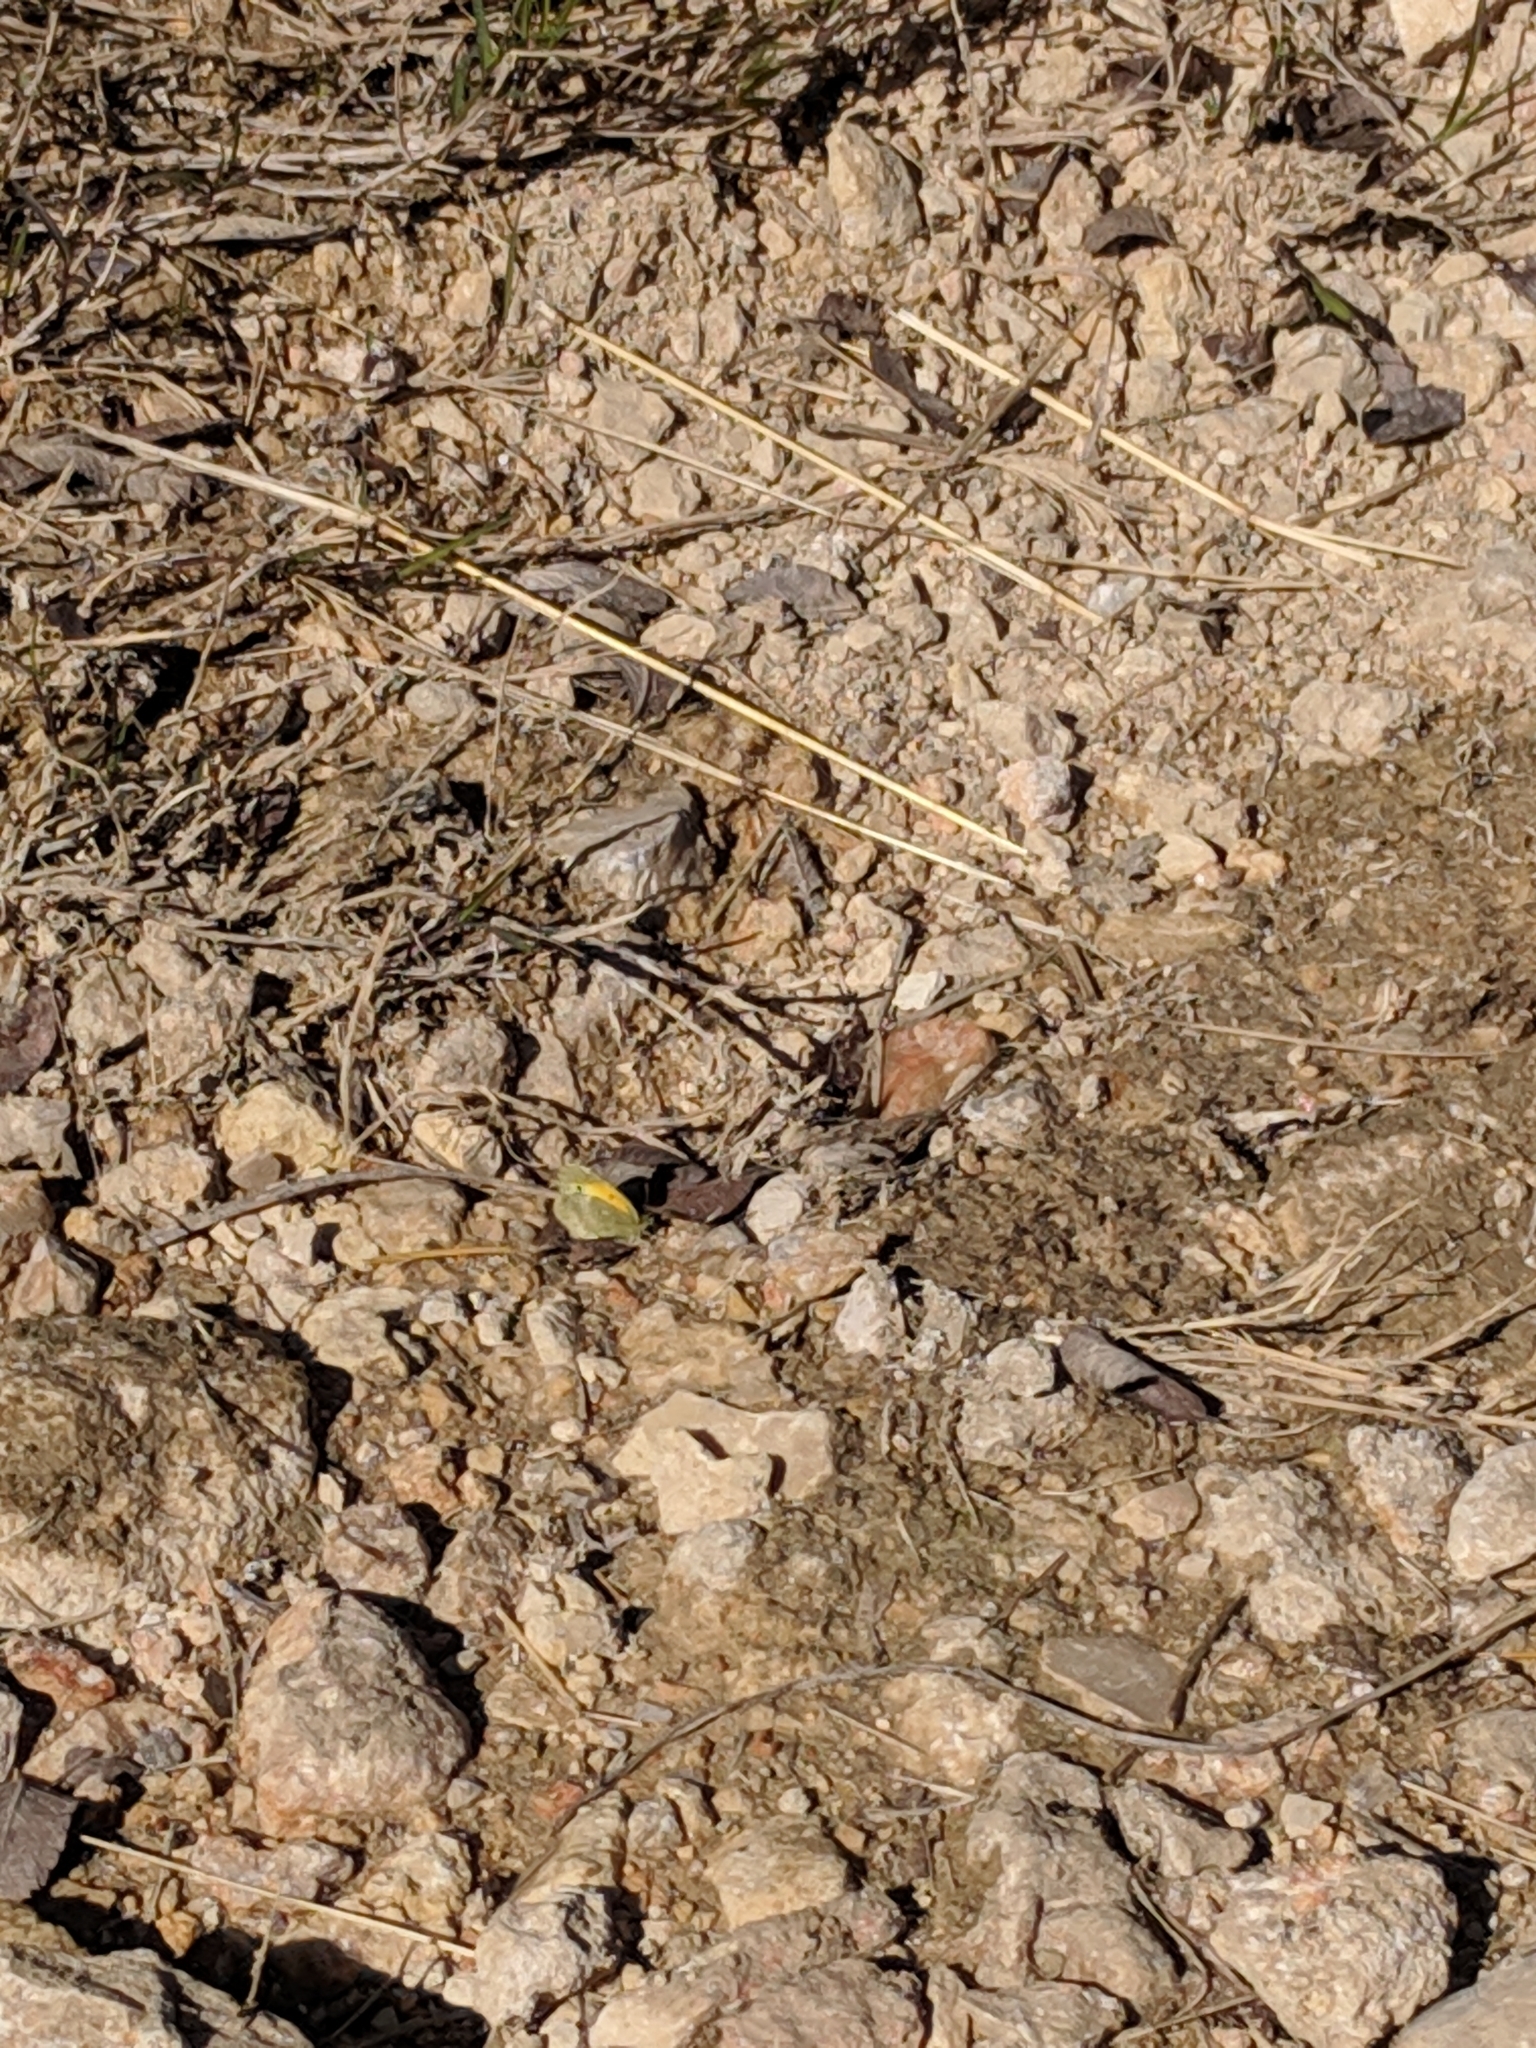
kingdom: Animalia
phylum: Arthropoda
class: Insecta
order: Lepidoptera
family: Pieridae
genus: Nathalis
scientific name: Nathalis iole
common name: Dainty sulphur
